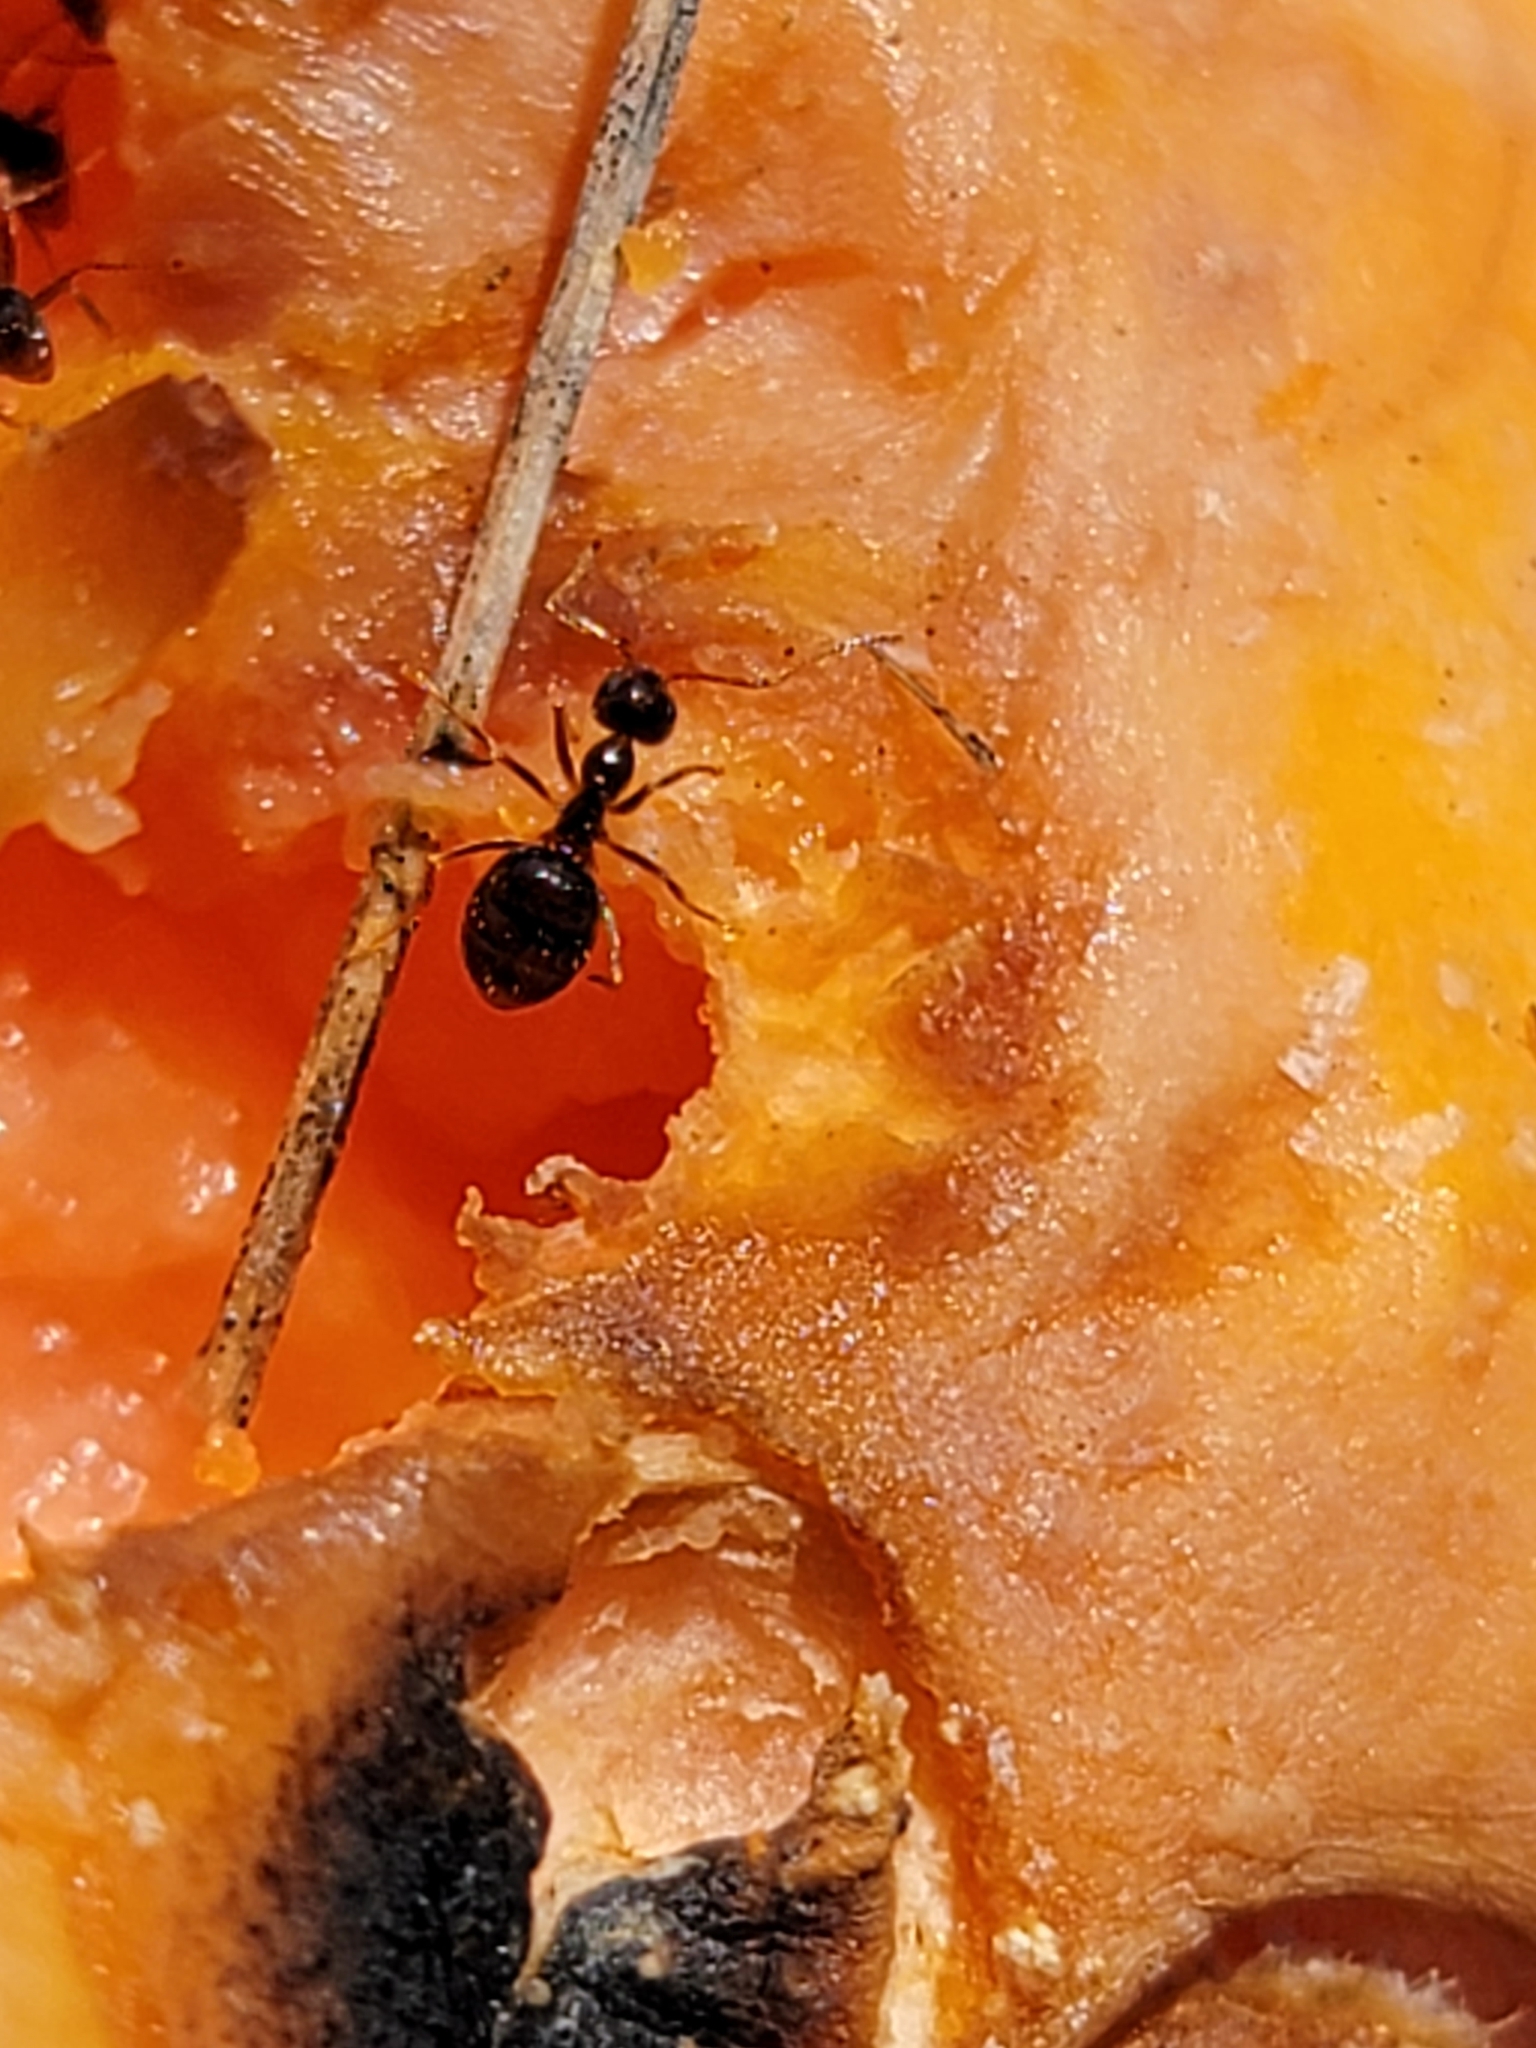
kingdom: Animalia
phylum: Arthropoda
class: Insecta
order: Hymenoptera
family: Formicidae
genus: Prenolepis
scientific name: Prenolepis imparis
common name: Small honey ant
